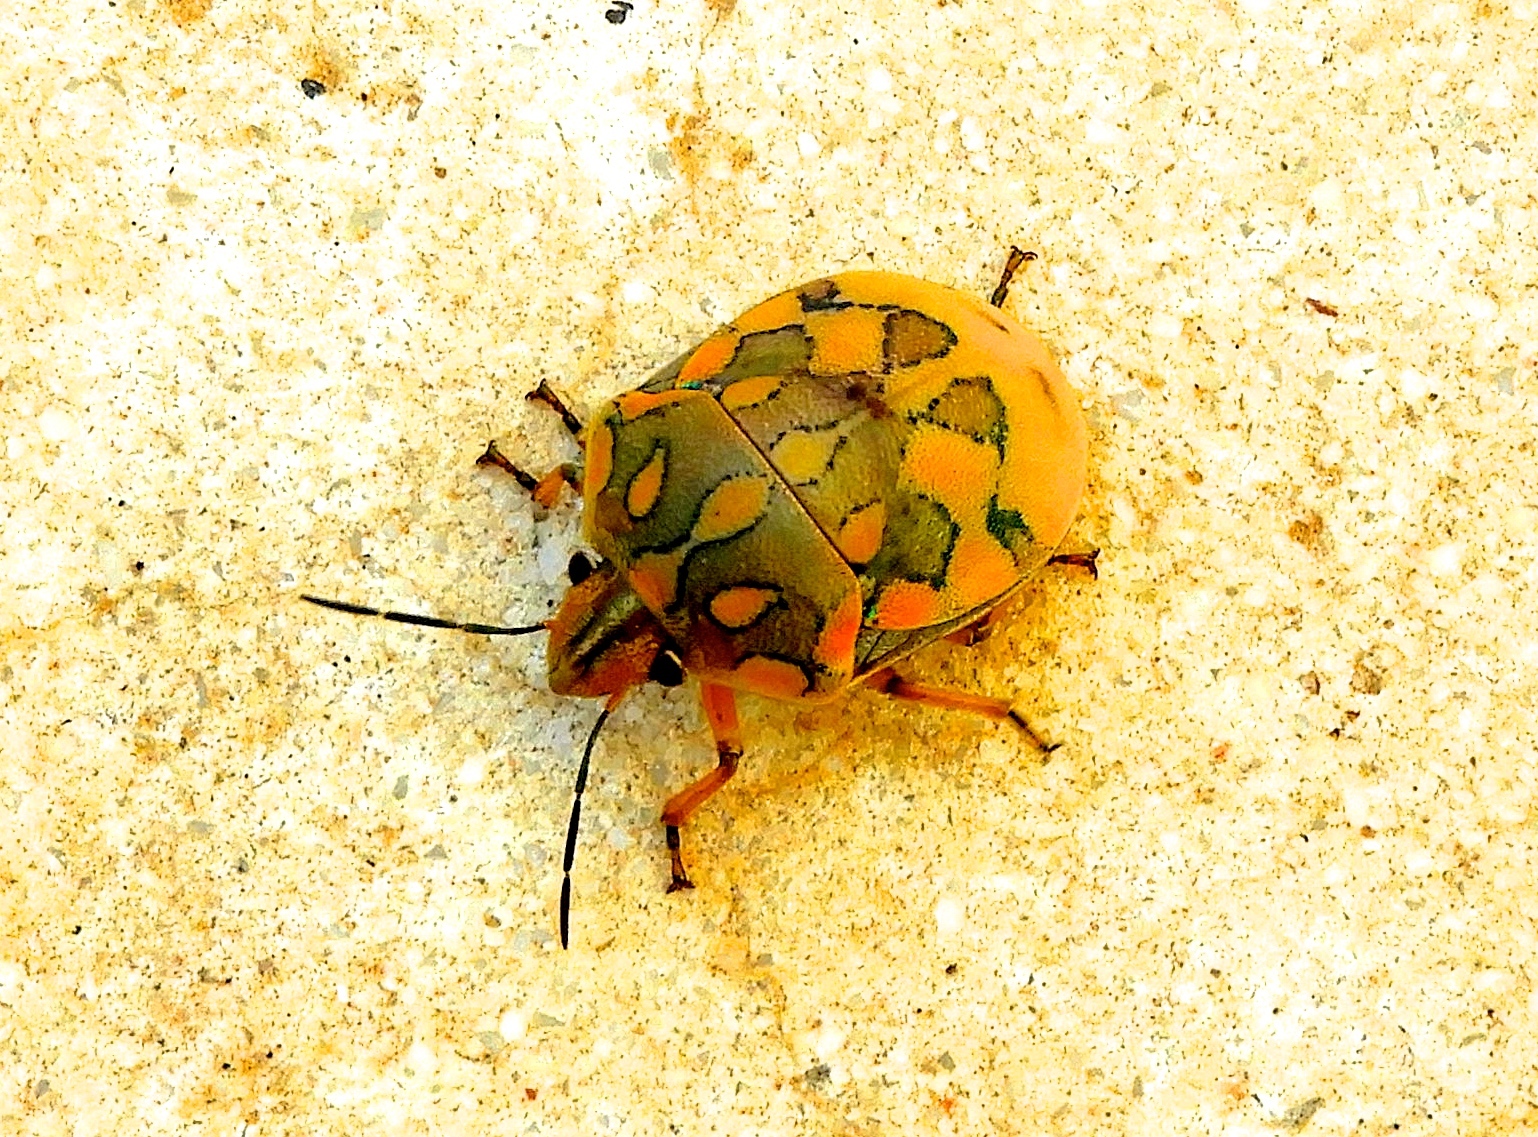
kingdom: Animalia
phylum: Arthropoda
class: Insecta
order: Hemiptera
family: Scutelleridae
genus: Pachycoris
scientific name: Pachycoris torridus
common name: Torrid jewel bug
